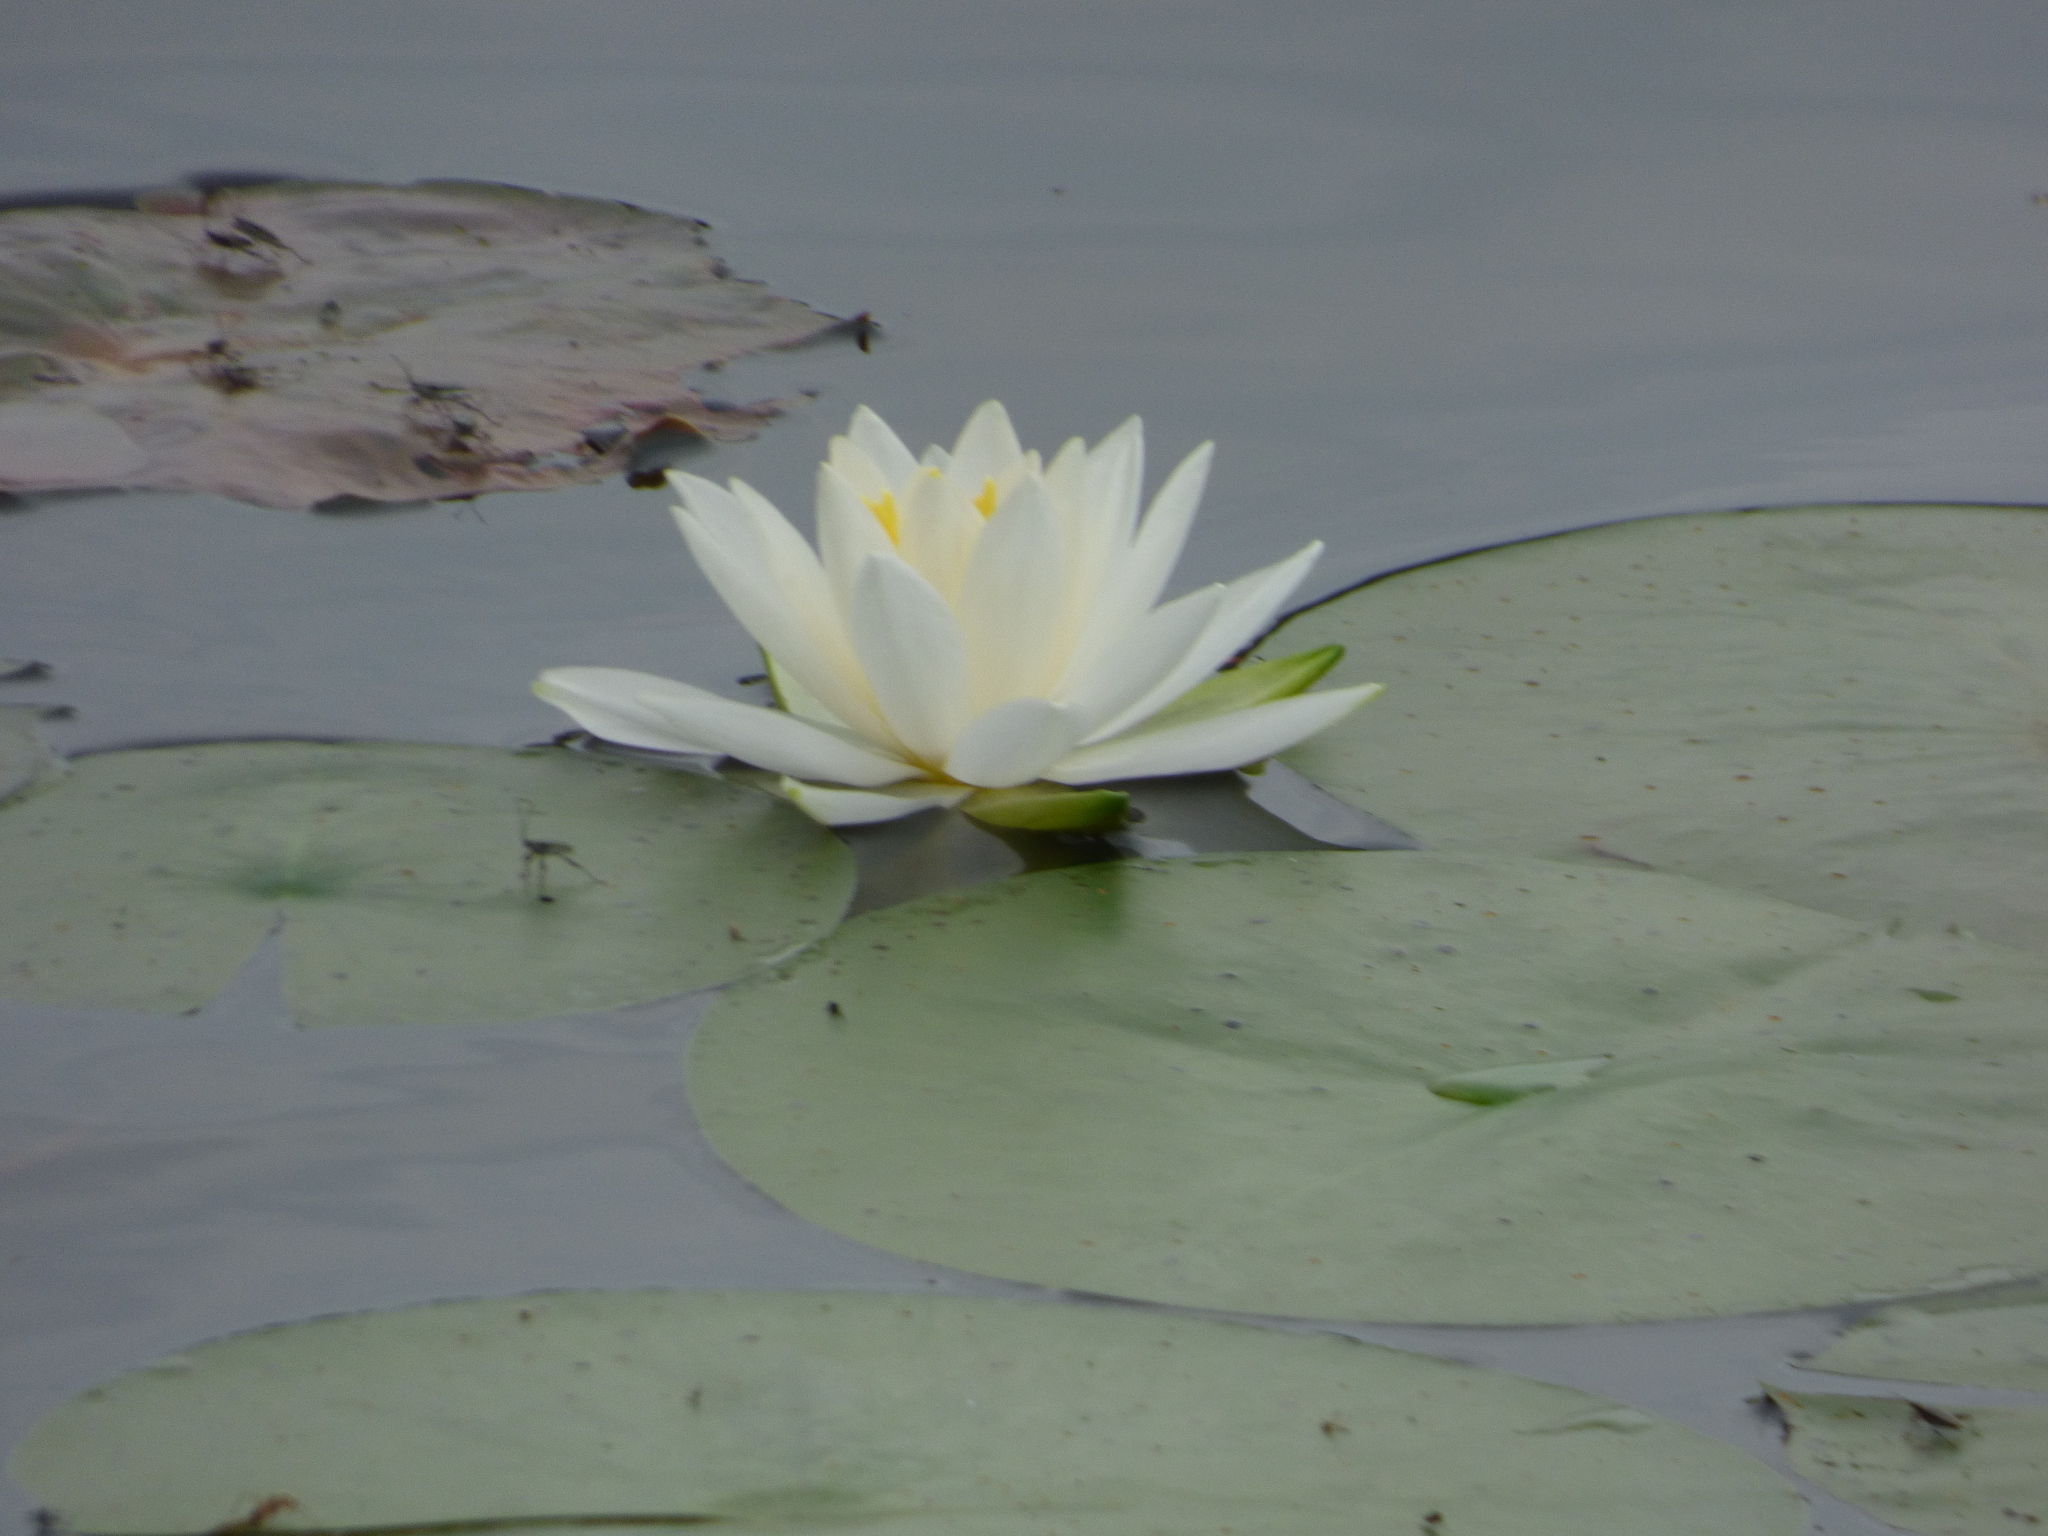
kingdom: Plantae
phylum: Tracheophyta
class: Magnoliopsida
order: Nymphaeales
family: Nymphaeaceae
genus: Nymphaea
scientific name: Nymphaea odorata
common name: Fragrant water-lily
